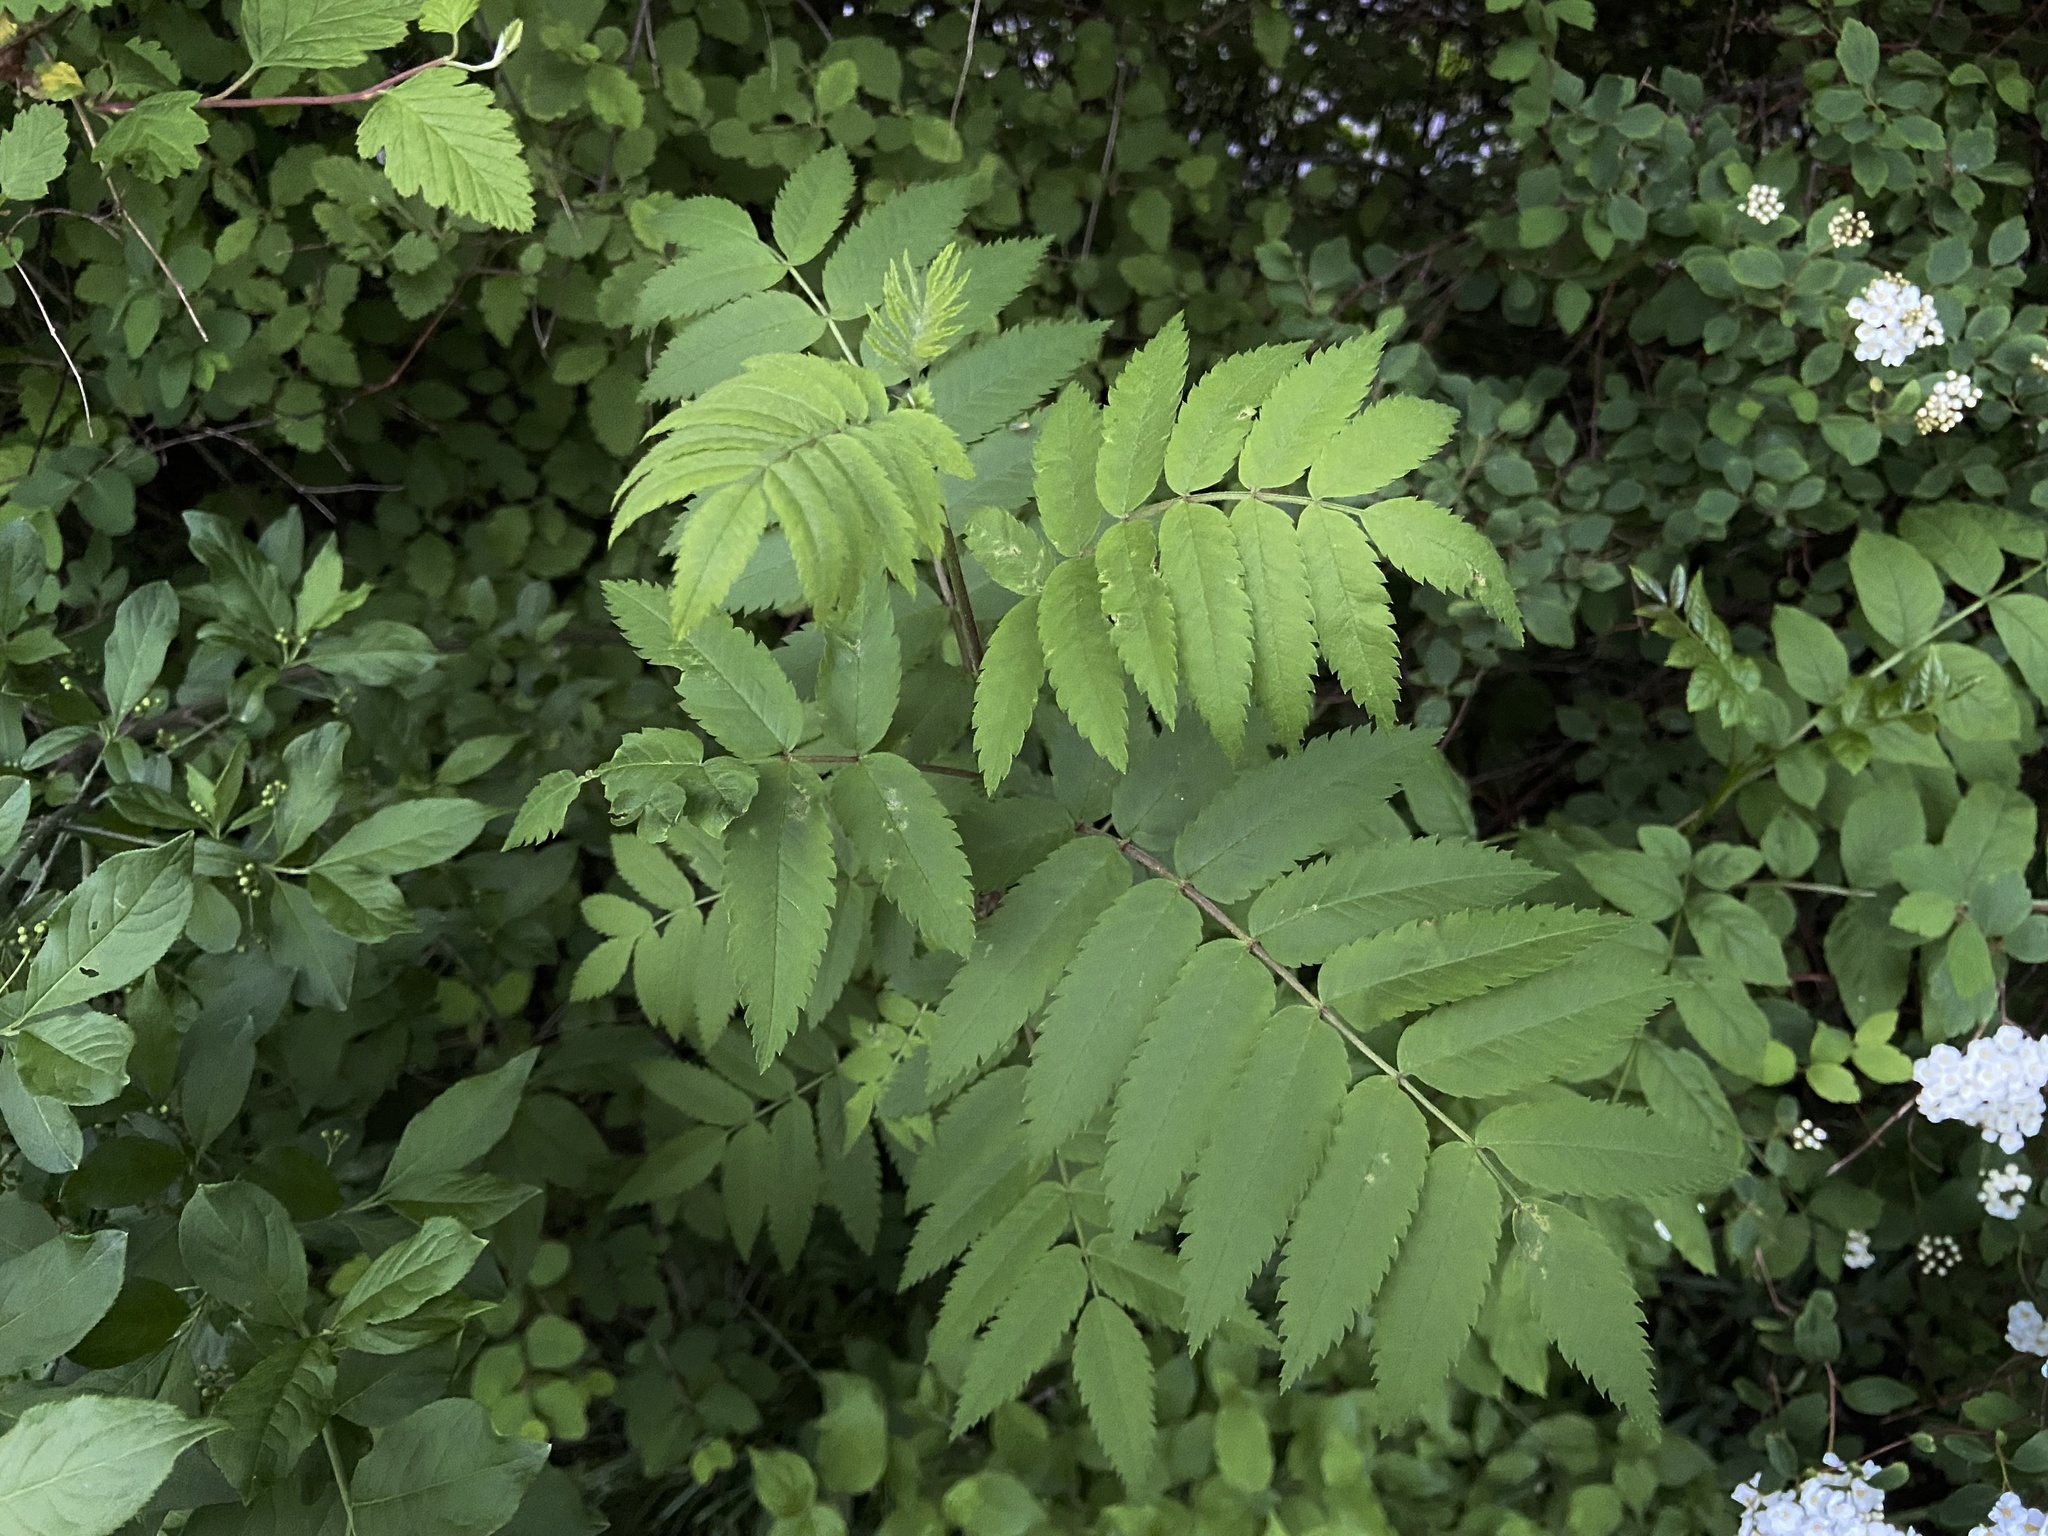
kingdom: Plantae
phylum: Tracheophyta
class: Magnoliopsida
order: Rosales
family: Rosaceae
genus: Sorbus
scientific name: Sorbus aucuparia
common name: Rowan
